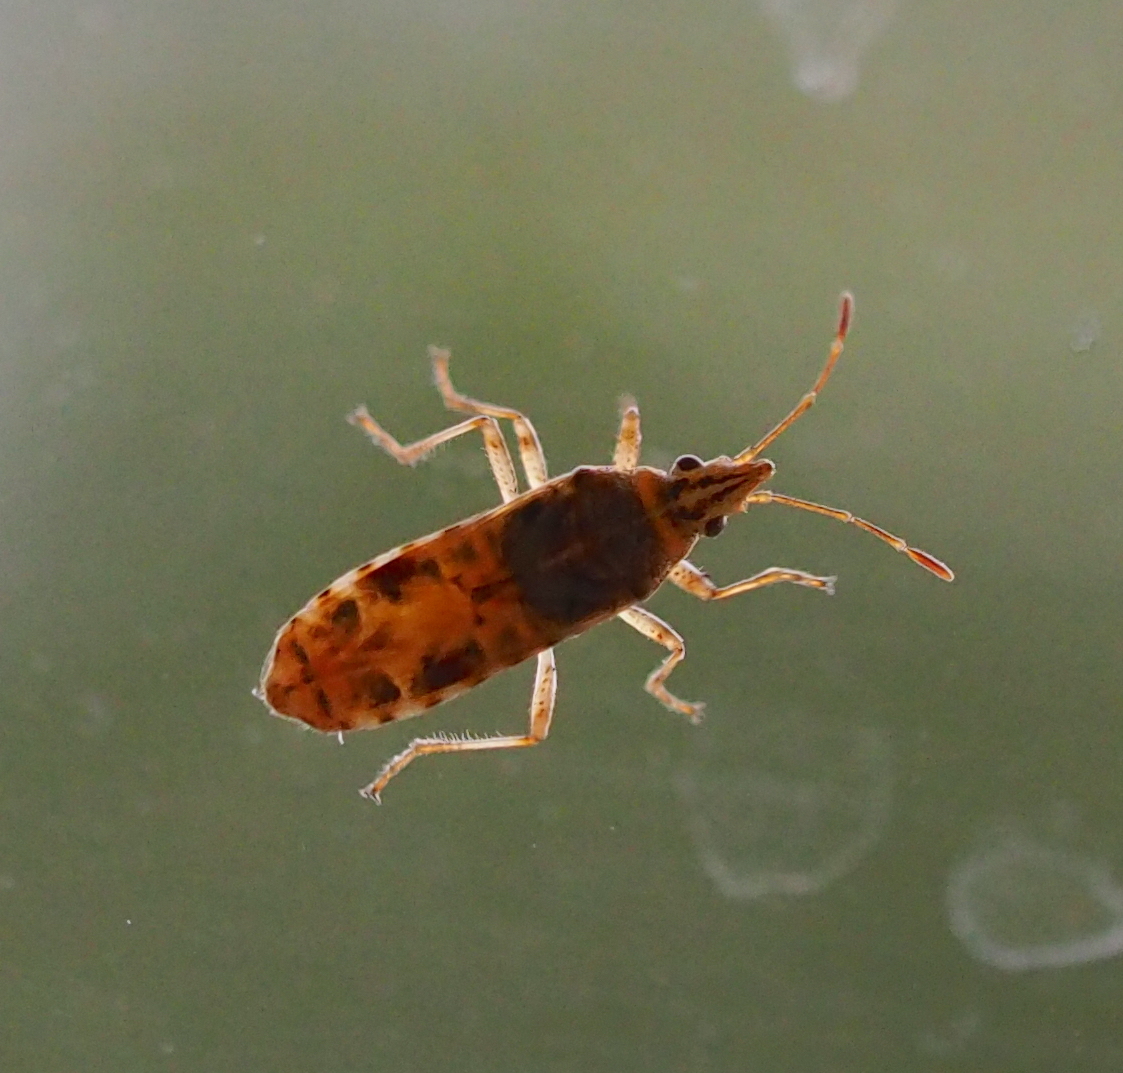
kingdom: Animalia
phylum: Arthropoda
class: Insecta
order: Hemiptera
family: Lygaeidae
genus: Belonochilus
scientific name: Belonochilus numenius
